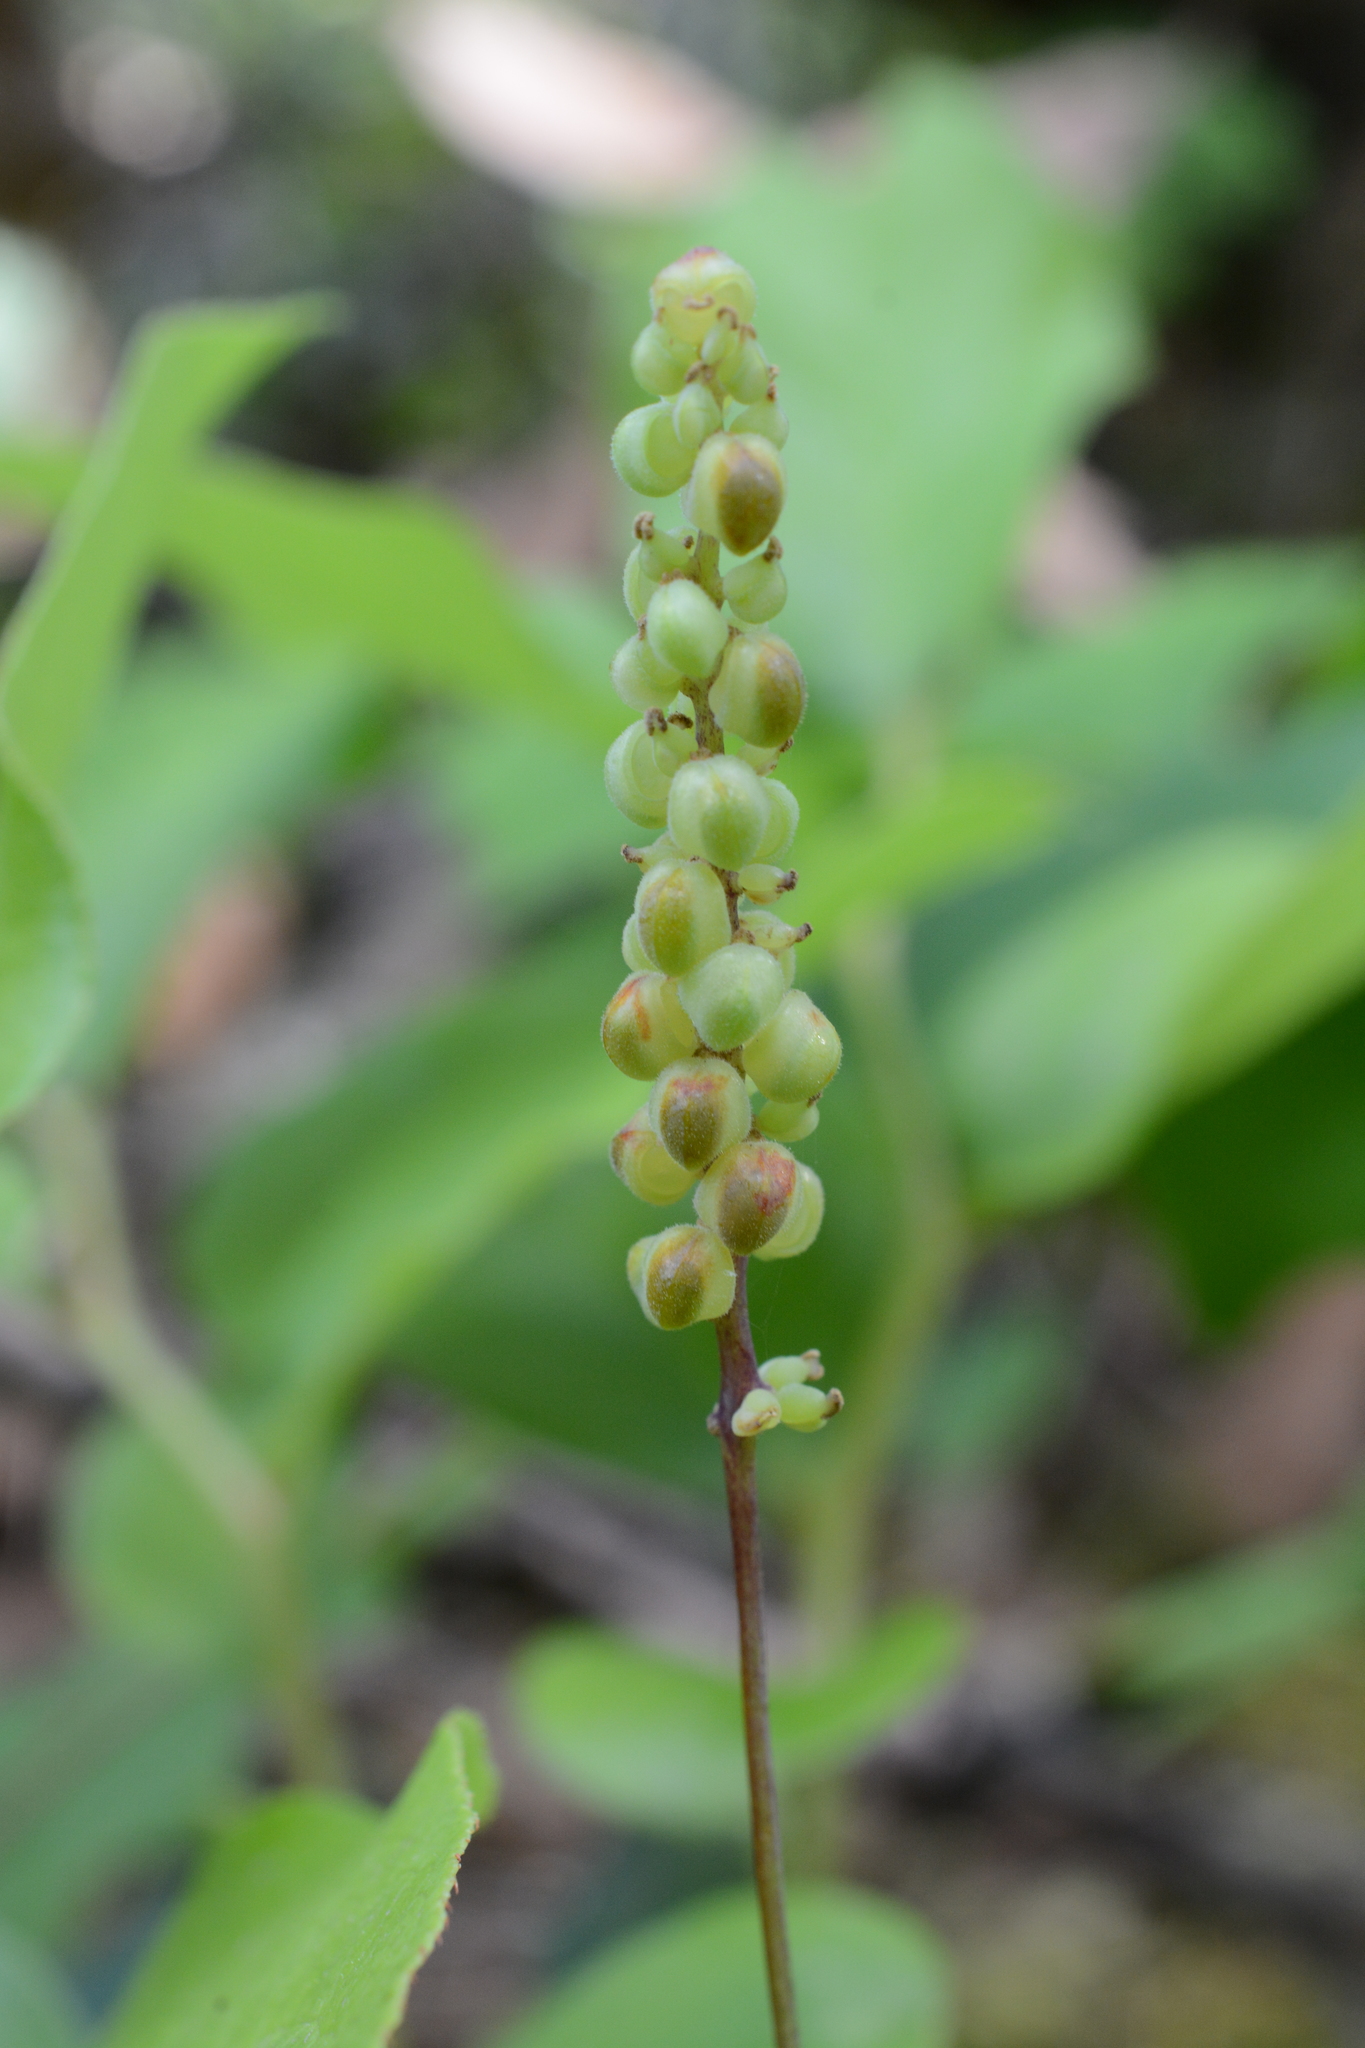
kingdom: Plantae
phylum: Tracheophyta
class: Magnoliopsida
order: Ranunculales
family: Berberidaceae
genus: Achlys
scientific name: Achlys triphylla
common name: Vanilla-leaf
